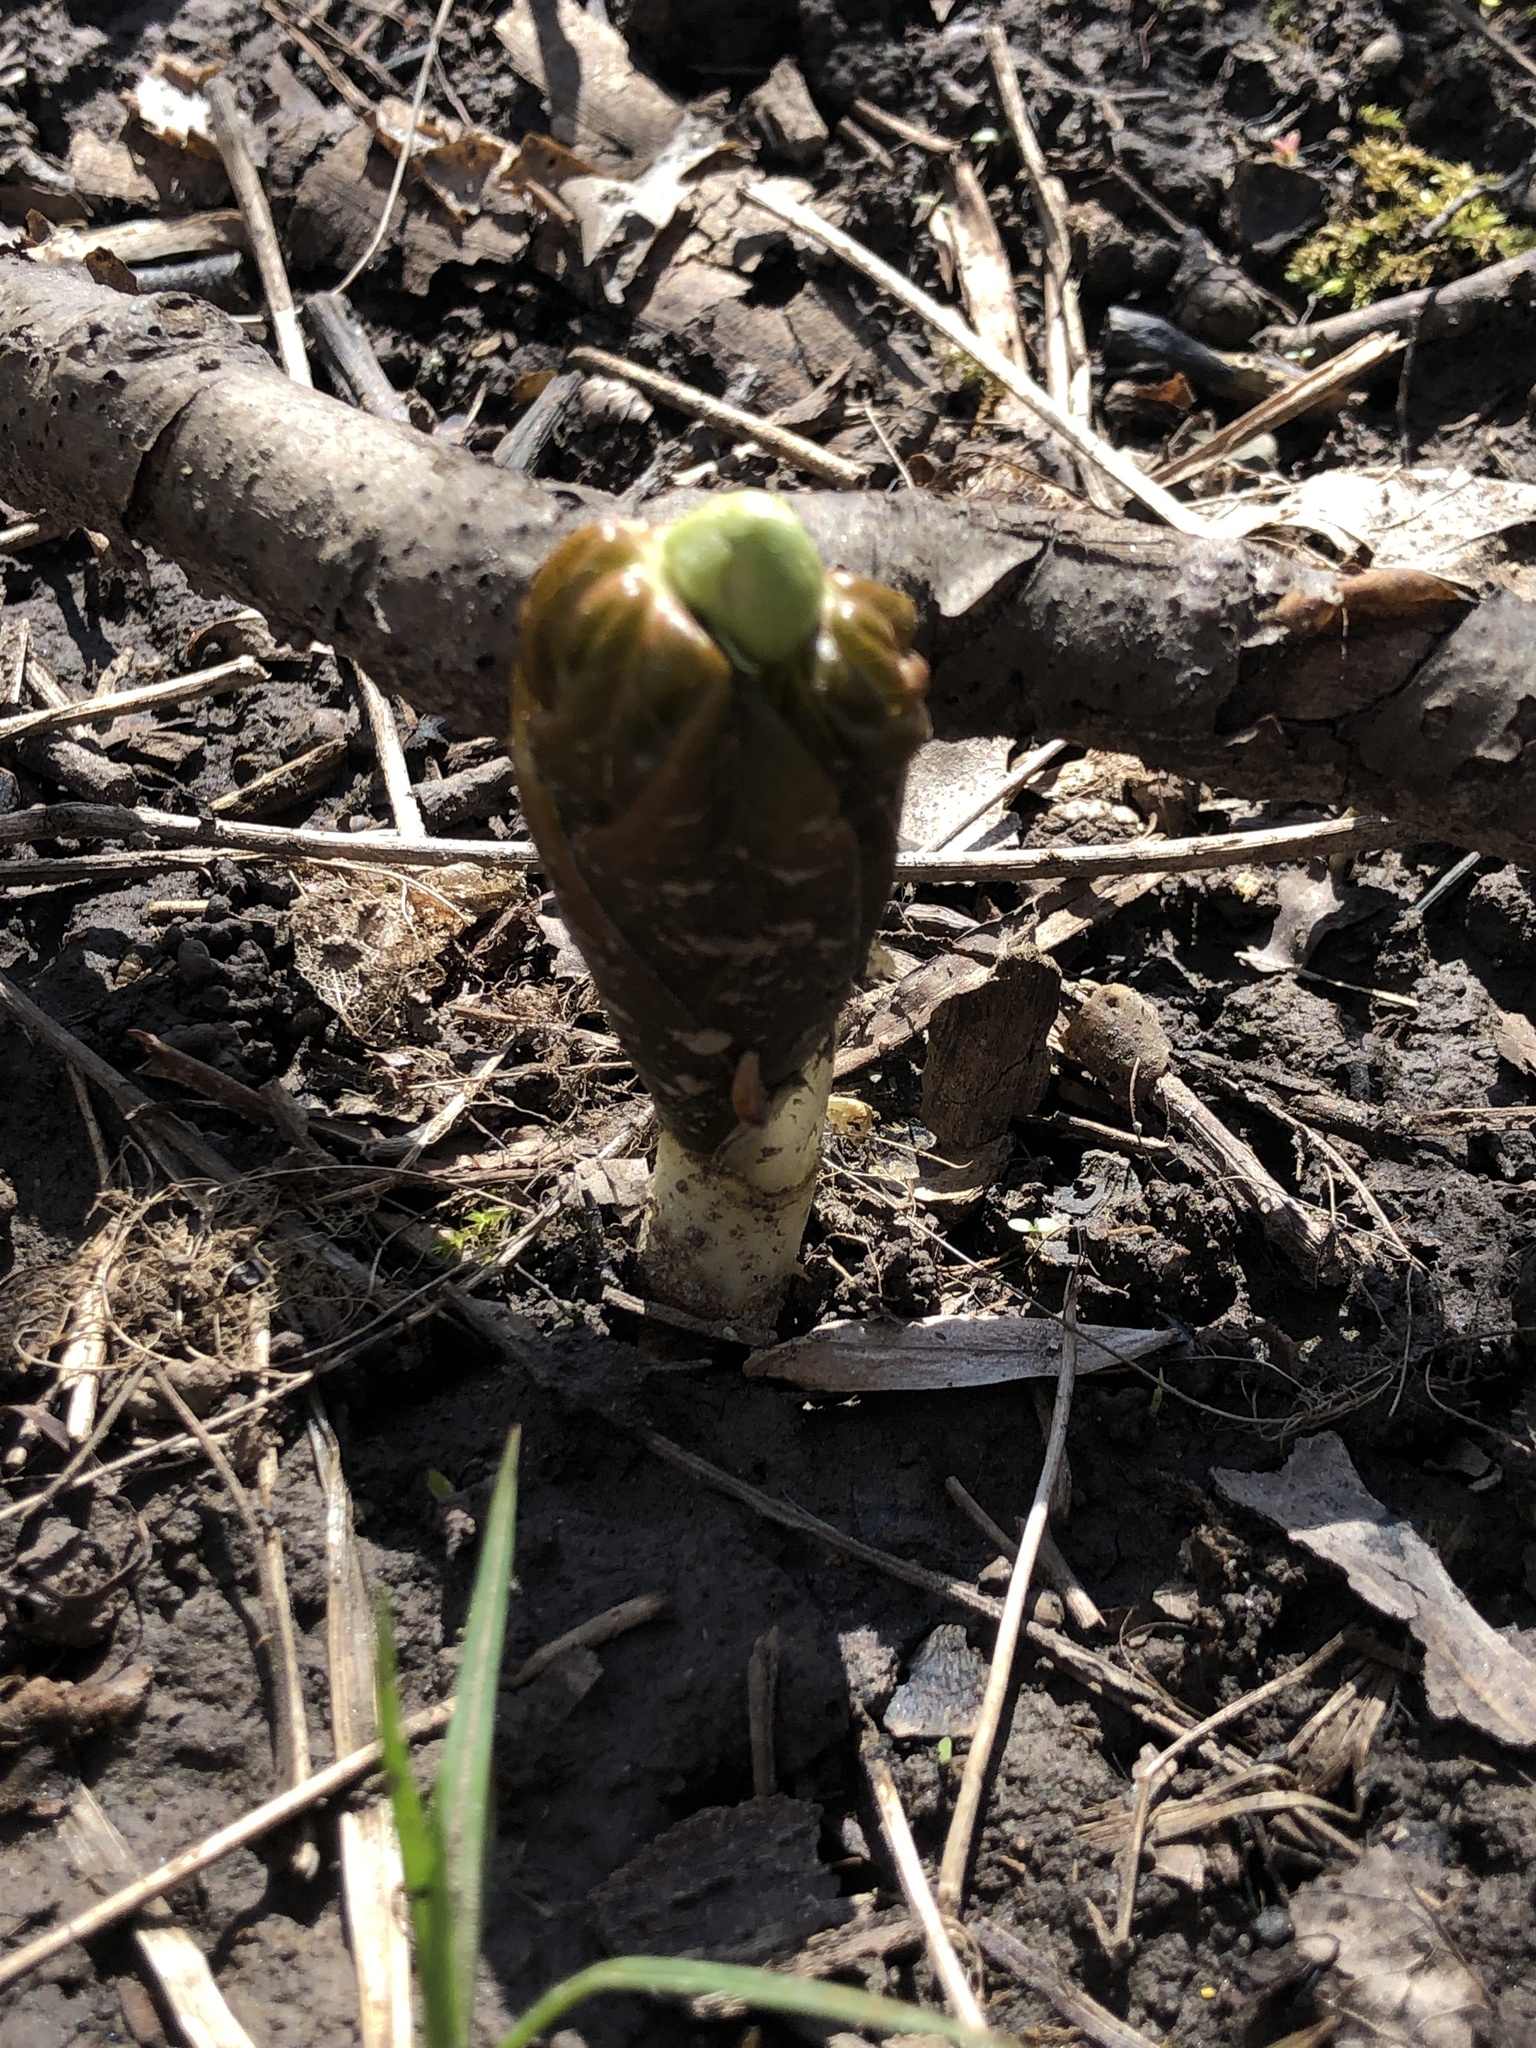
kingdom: Plantae
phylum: Tracheophyta
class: Magnoliopsida
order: Ranunculales
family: Berberidaceae
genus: Podophyllum
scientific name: Podophyllum peltatum
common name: Wild mandrake
